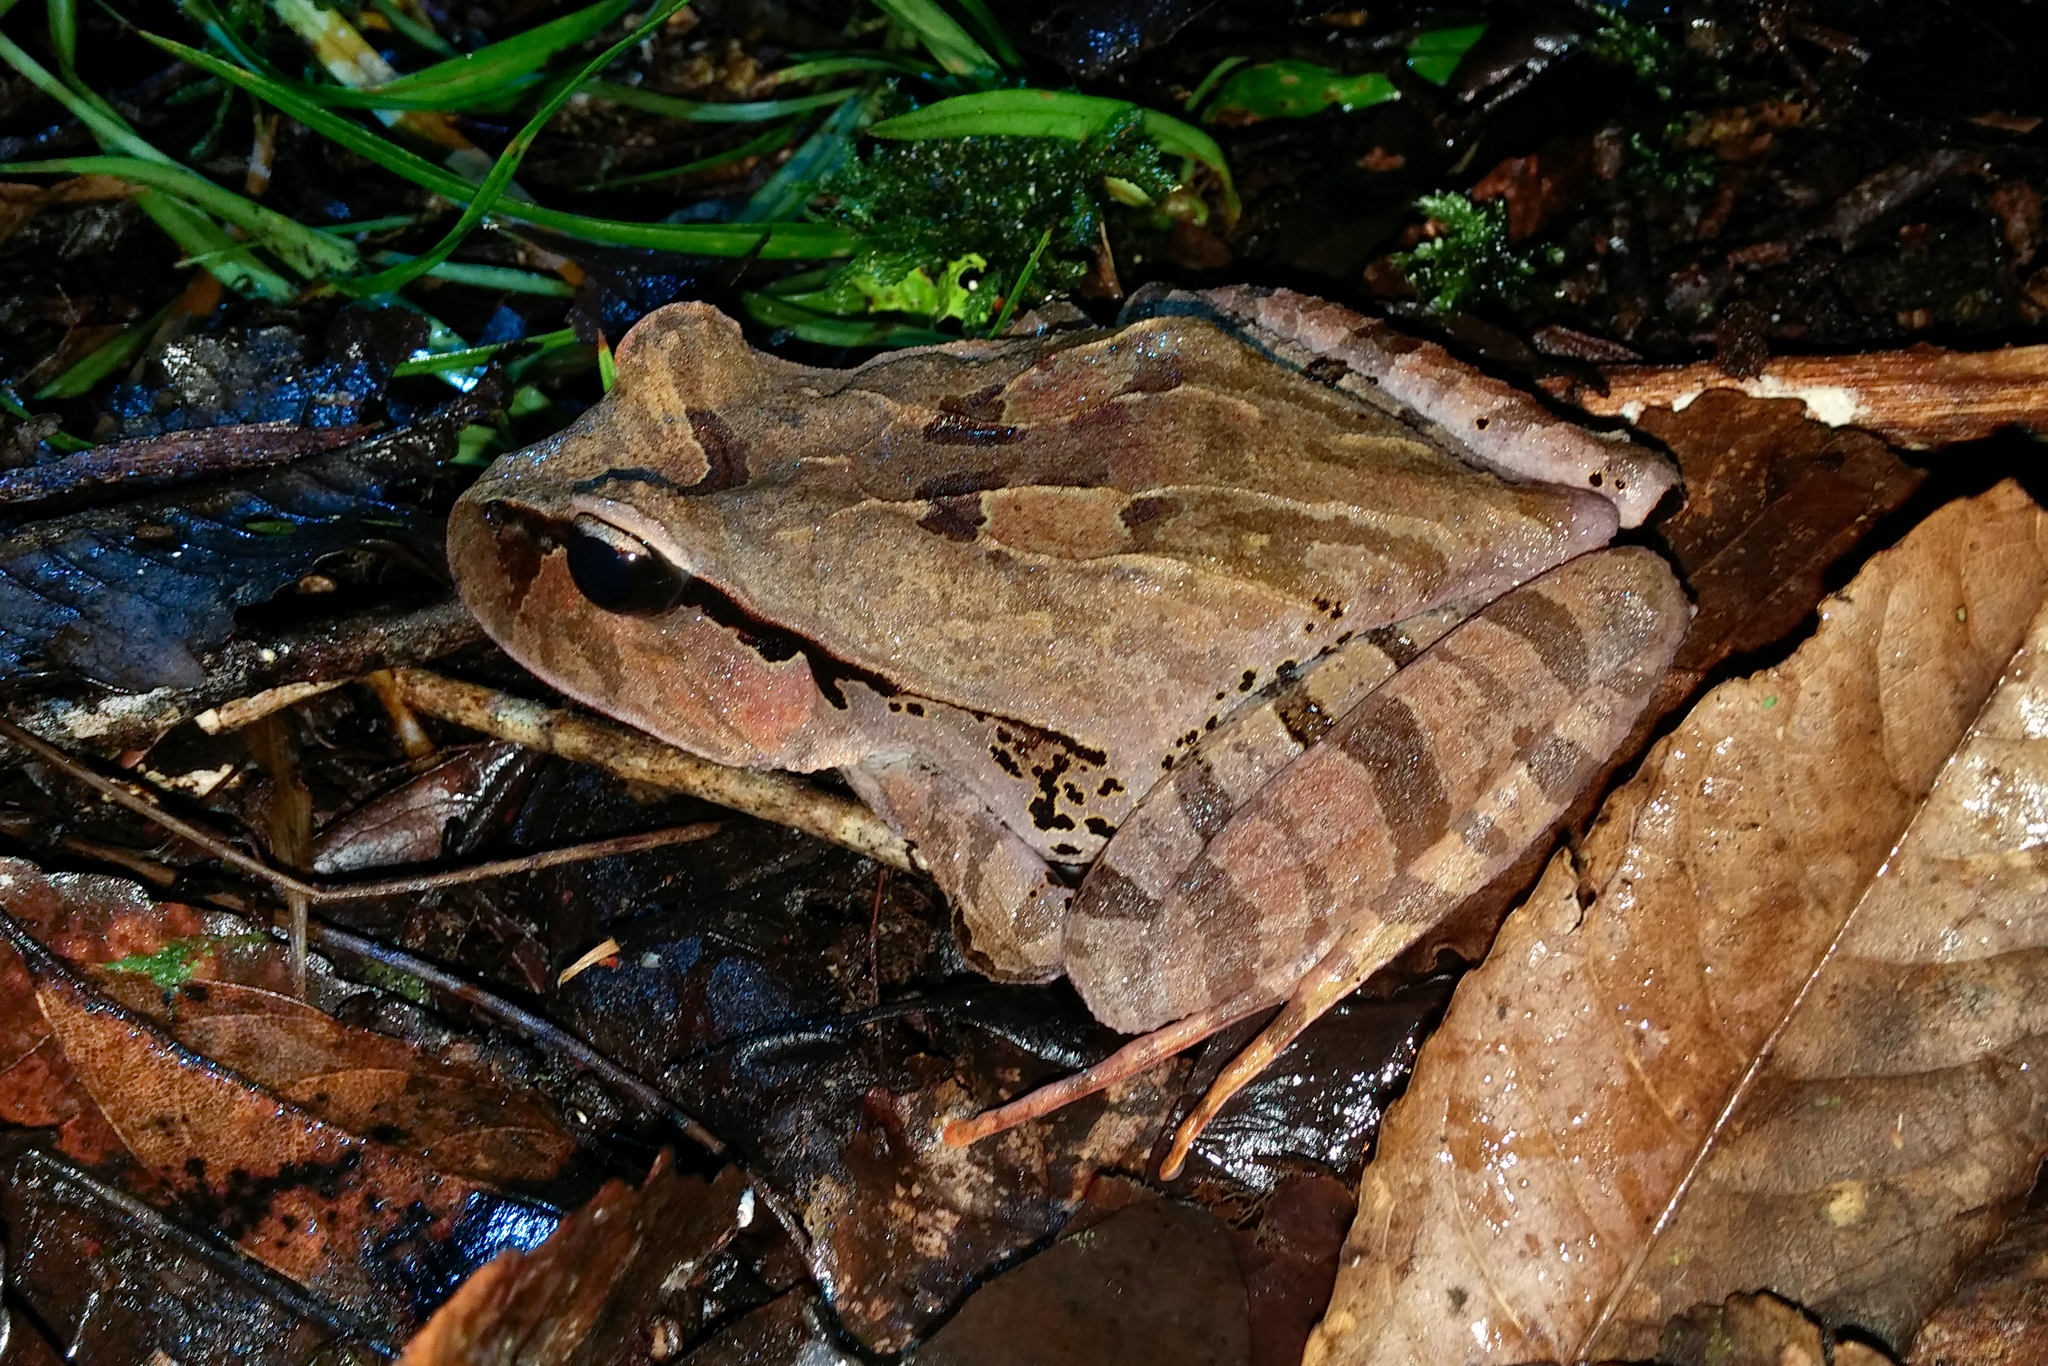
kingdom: Animalia
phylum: Chordata
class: Amphibia
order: Anura
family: Limnodynastidae
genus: Platyplectrum
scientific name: Platyplectrum
